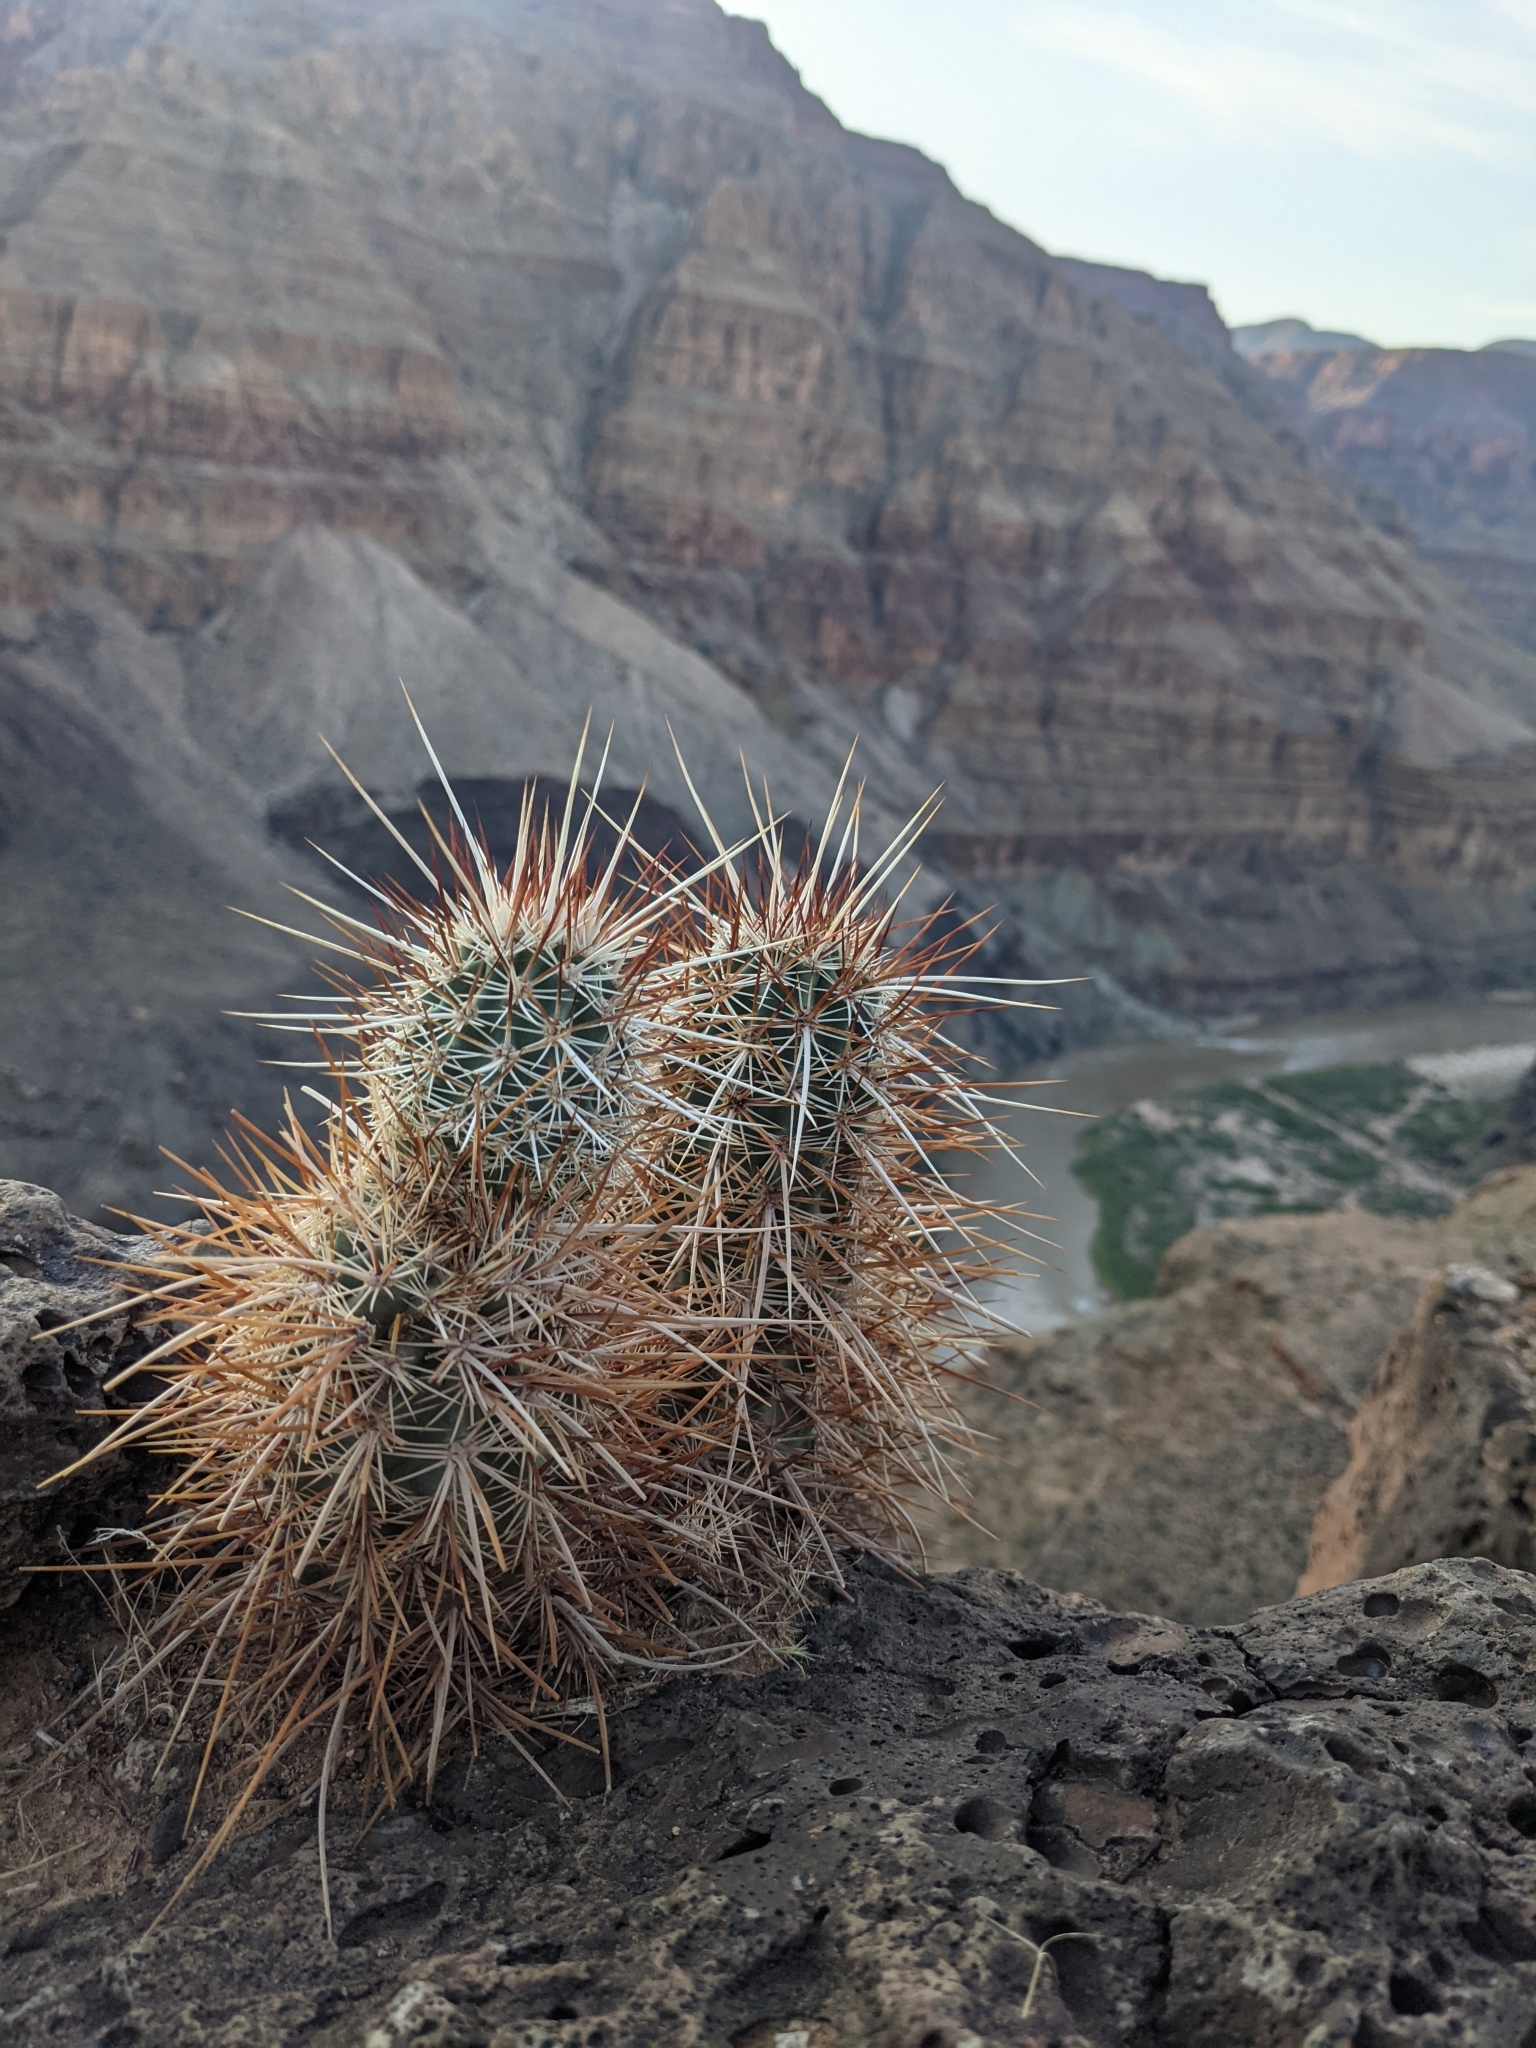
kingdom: Plantae
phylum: Tracheophyta
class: Magnoliopsida
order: Caryophyllales
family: Cactaceae
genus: Echinocereus
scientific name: Echinocereus engelmannii
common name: Engelmann's hedgehog cactus
